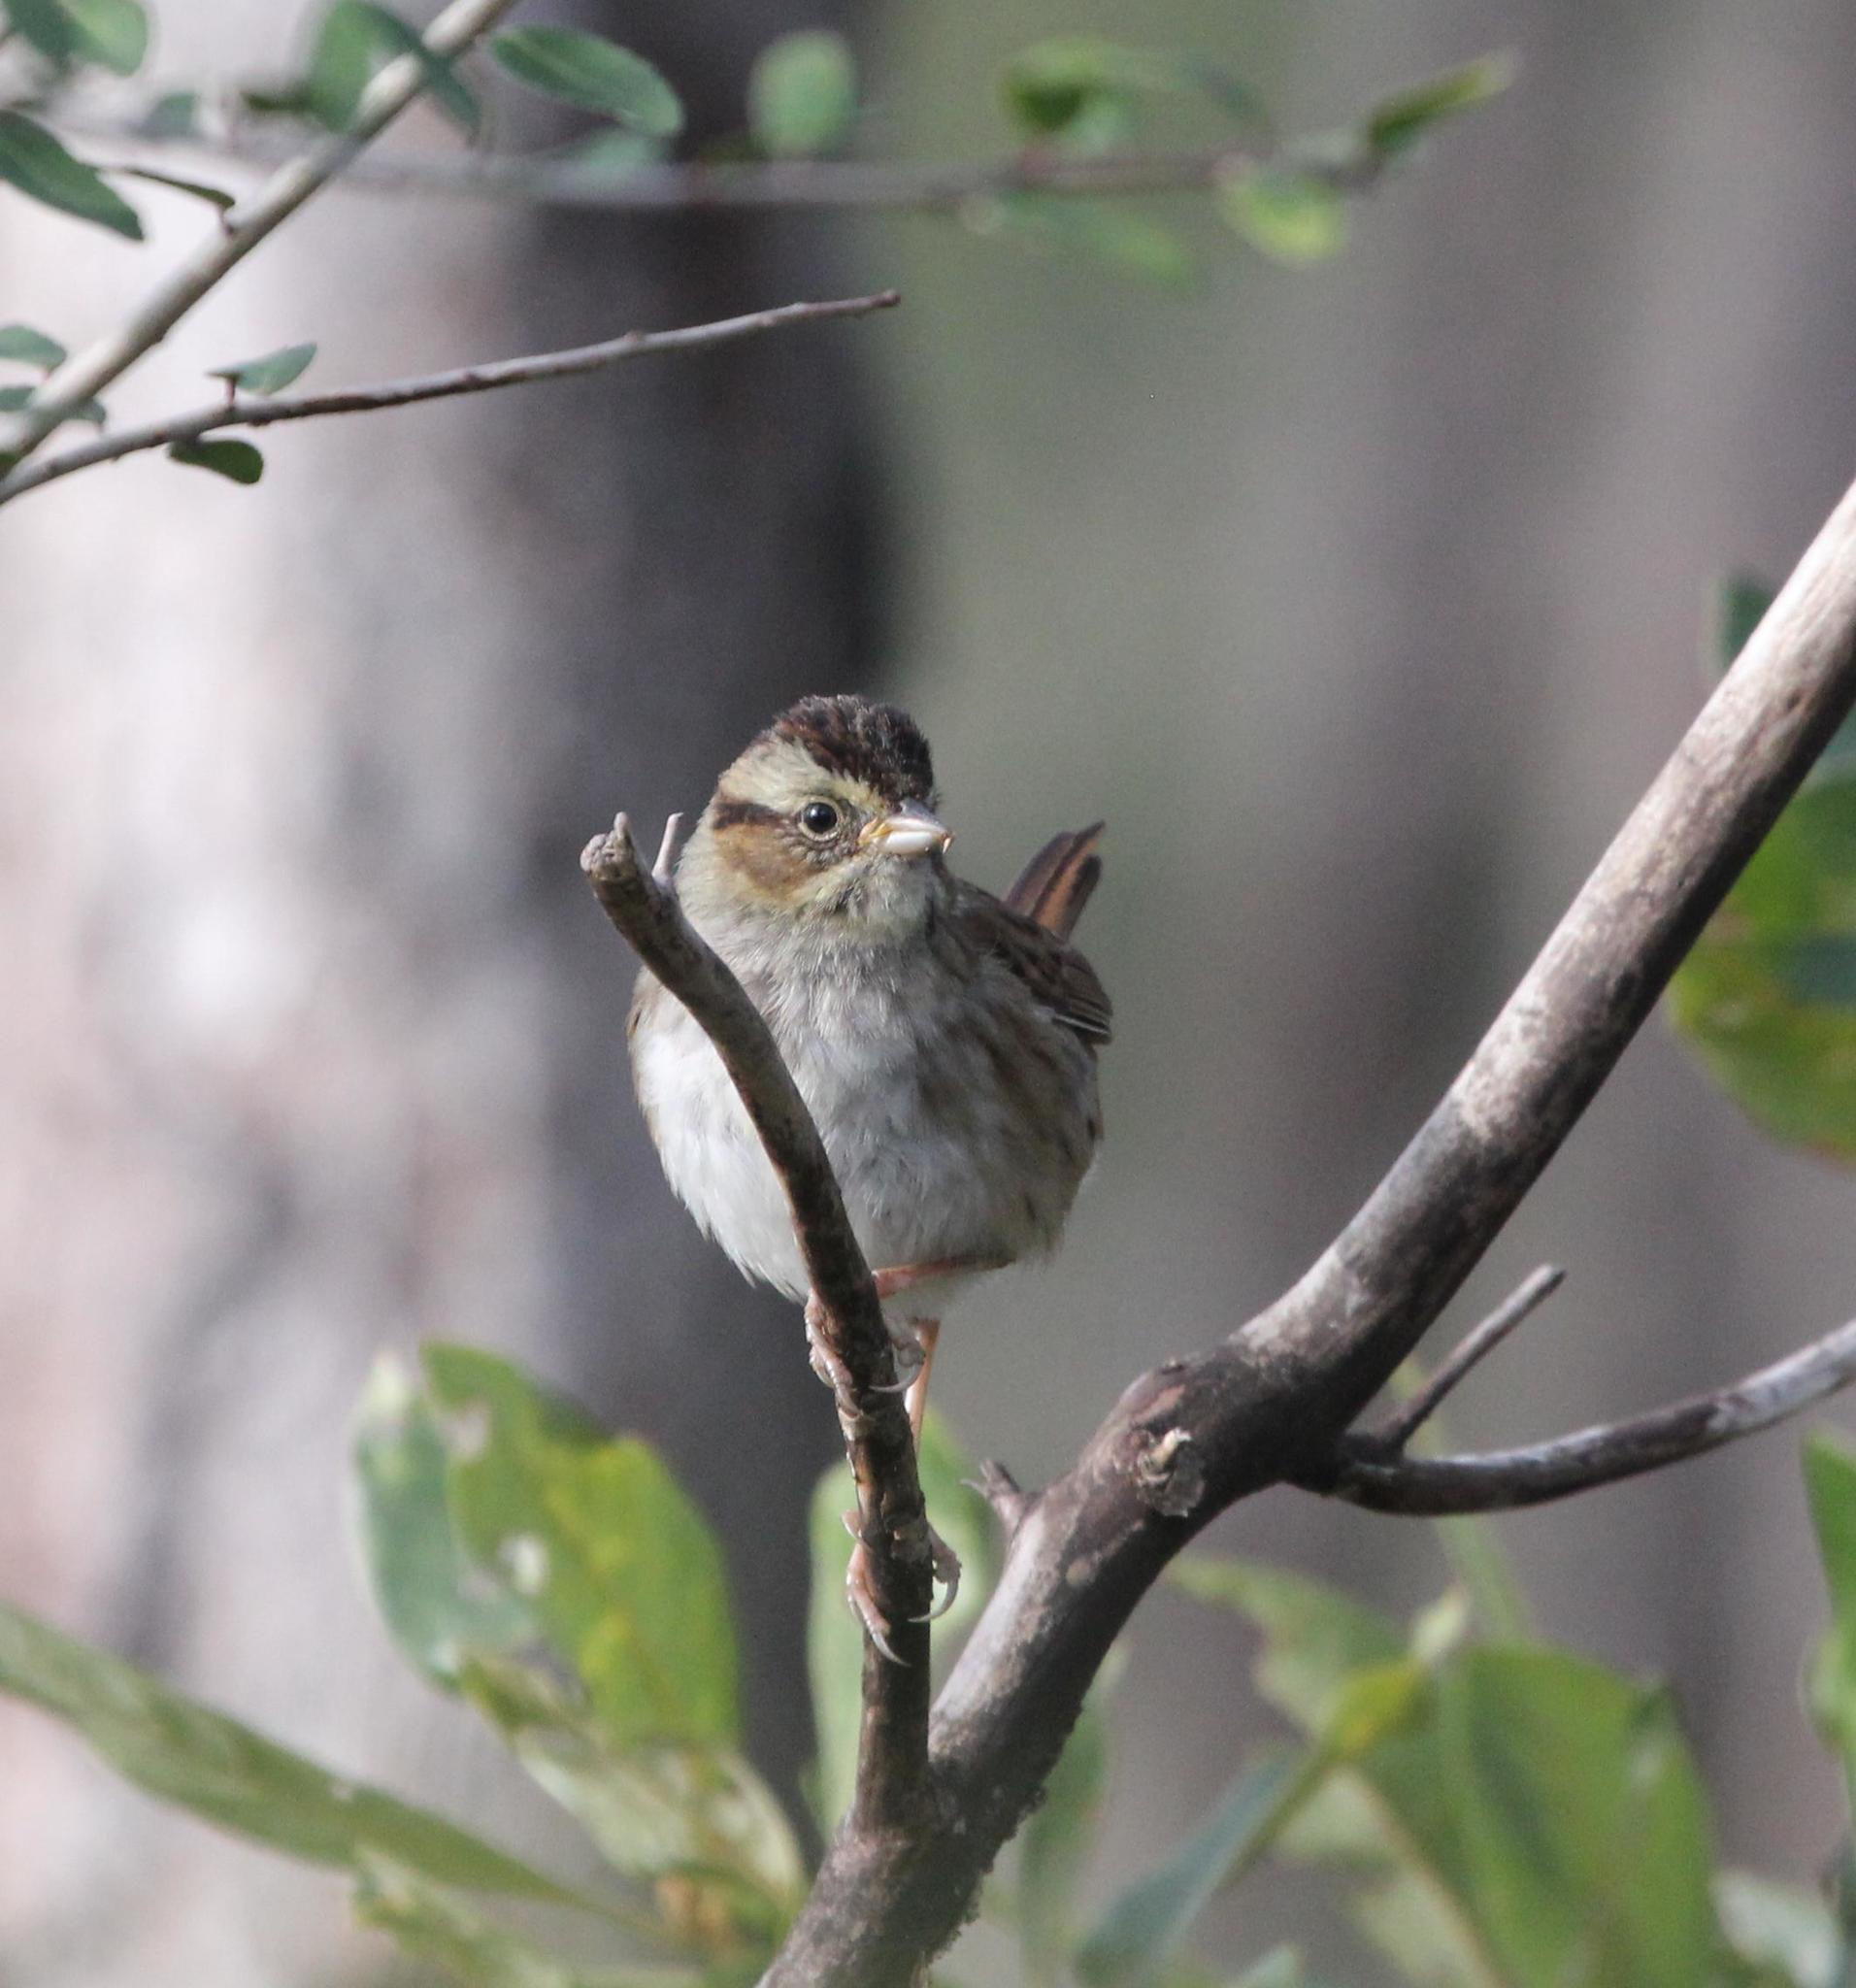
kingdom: Animalia
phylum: Chordata
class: Aves
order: Passeriformes
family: Passerellidae
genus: Melospiza
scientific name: Melospiza georgiana
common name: Swamp sparrow
